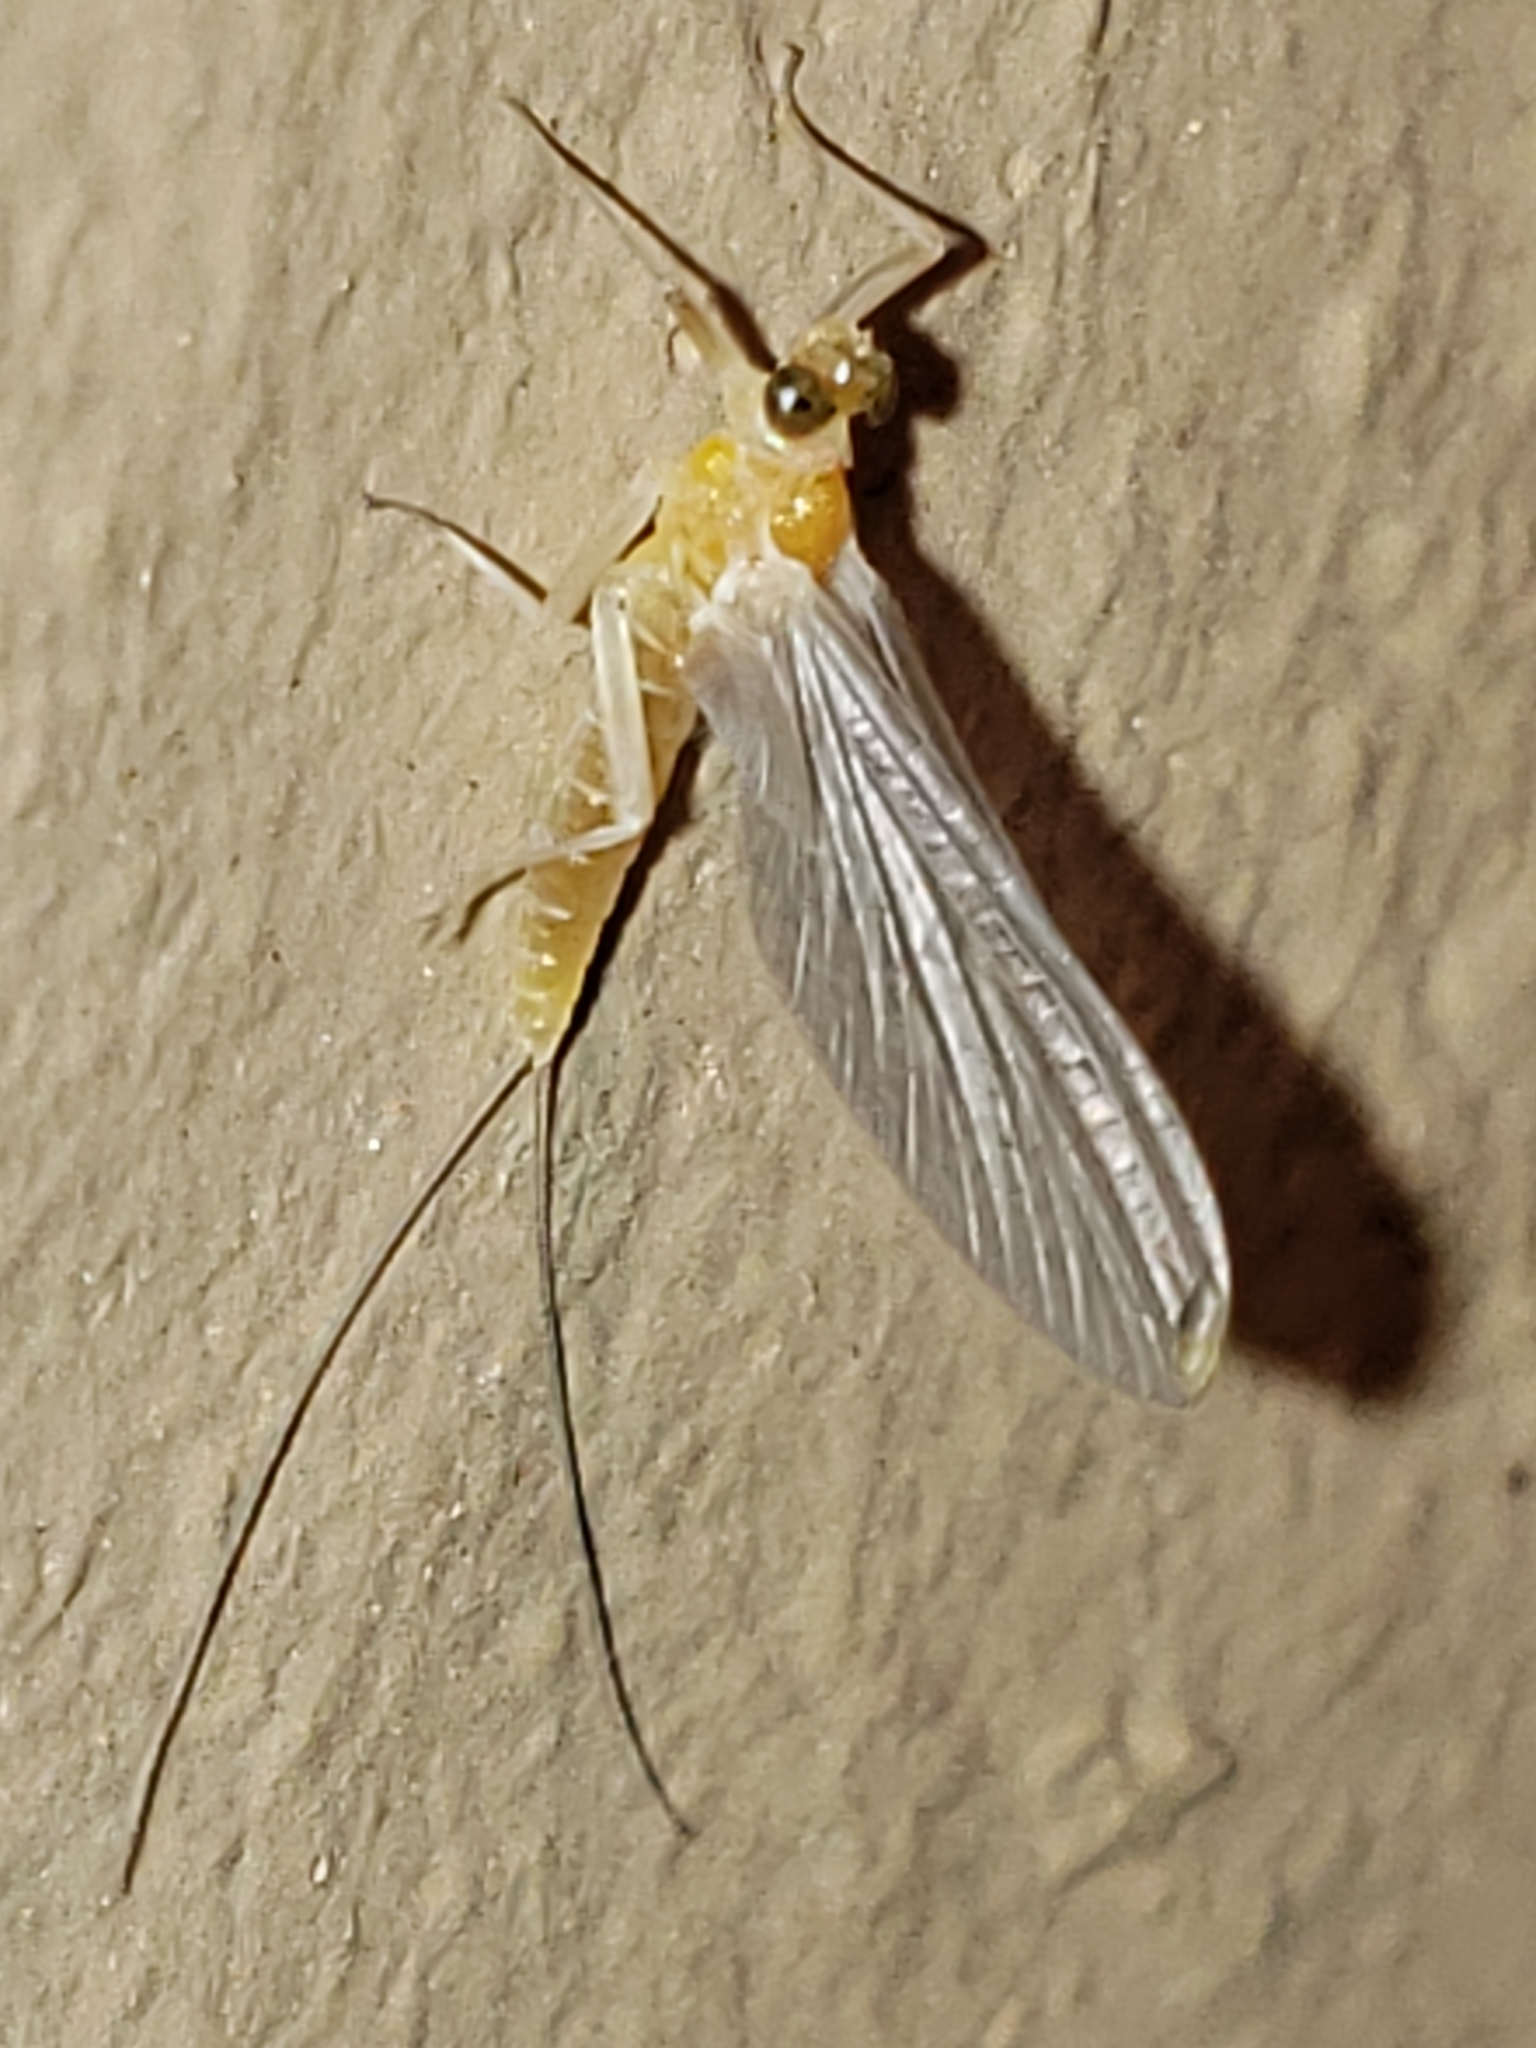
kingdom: Animalia
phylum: Arthropoda
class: Insecta
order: Ephemeroptera
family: Heptageniidae
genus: Nixe
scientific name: Nixe inconspicua
